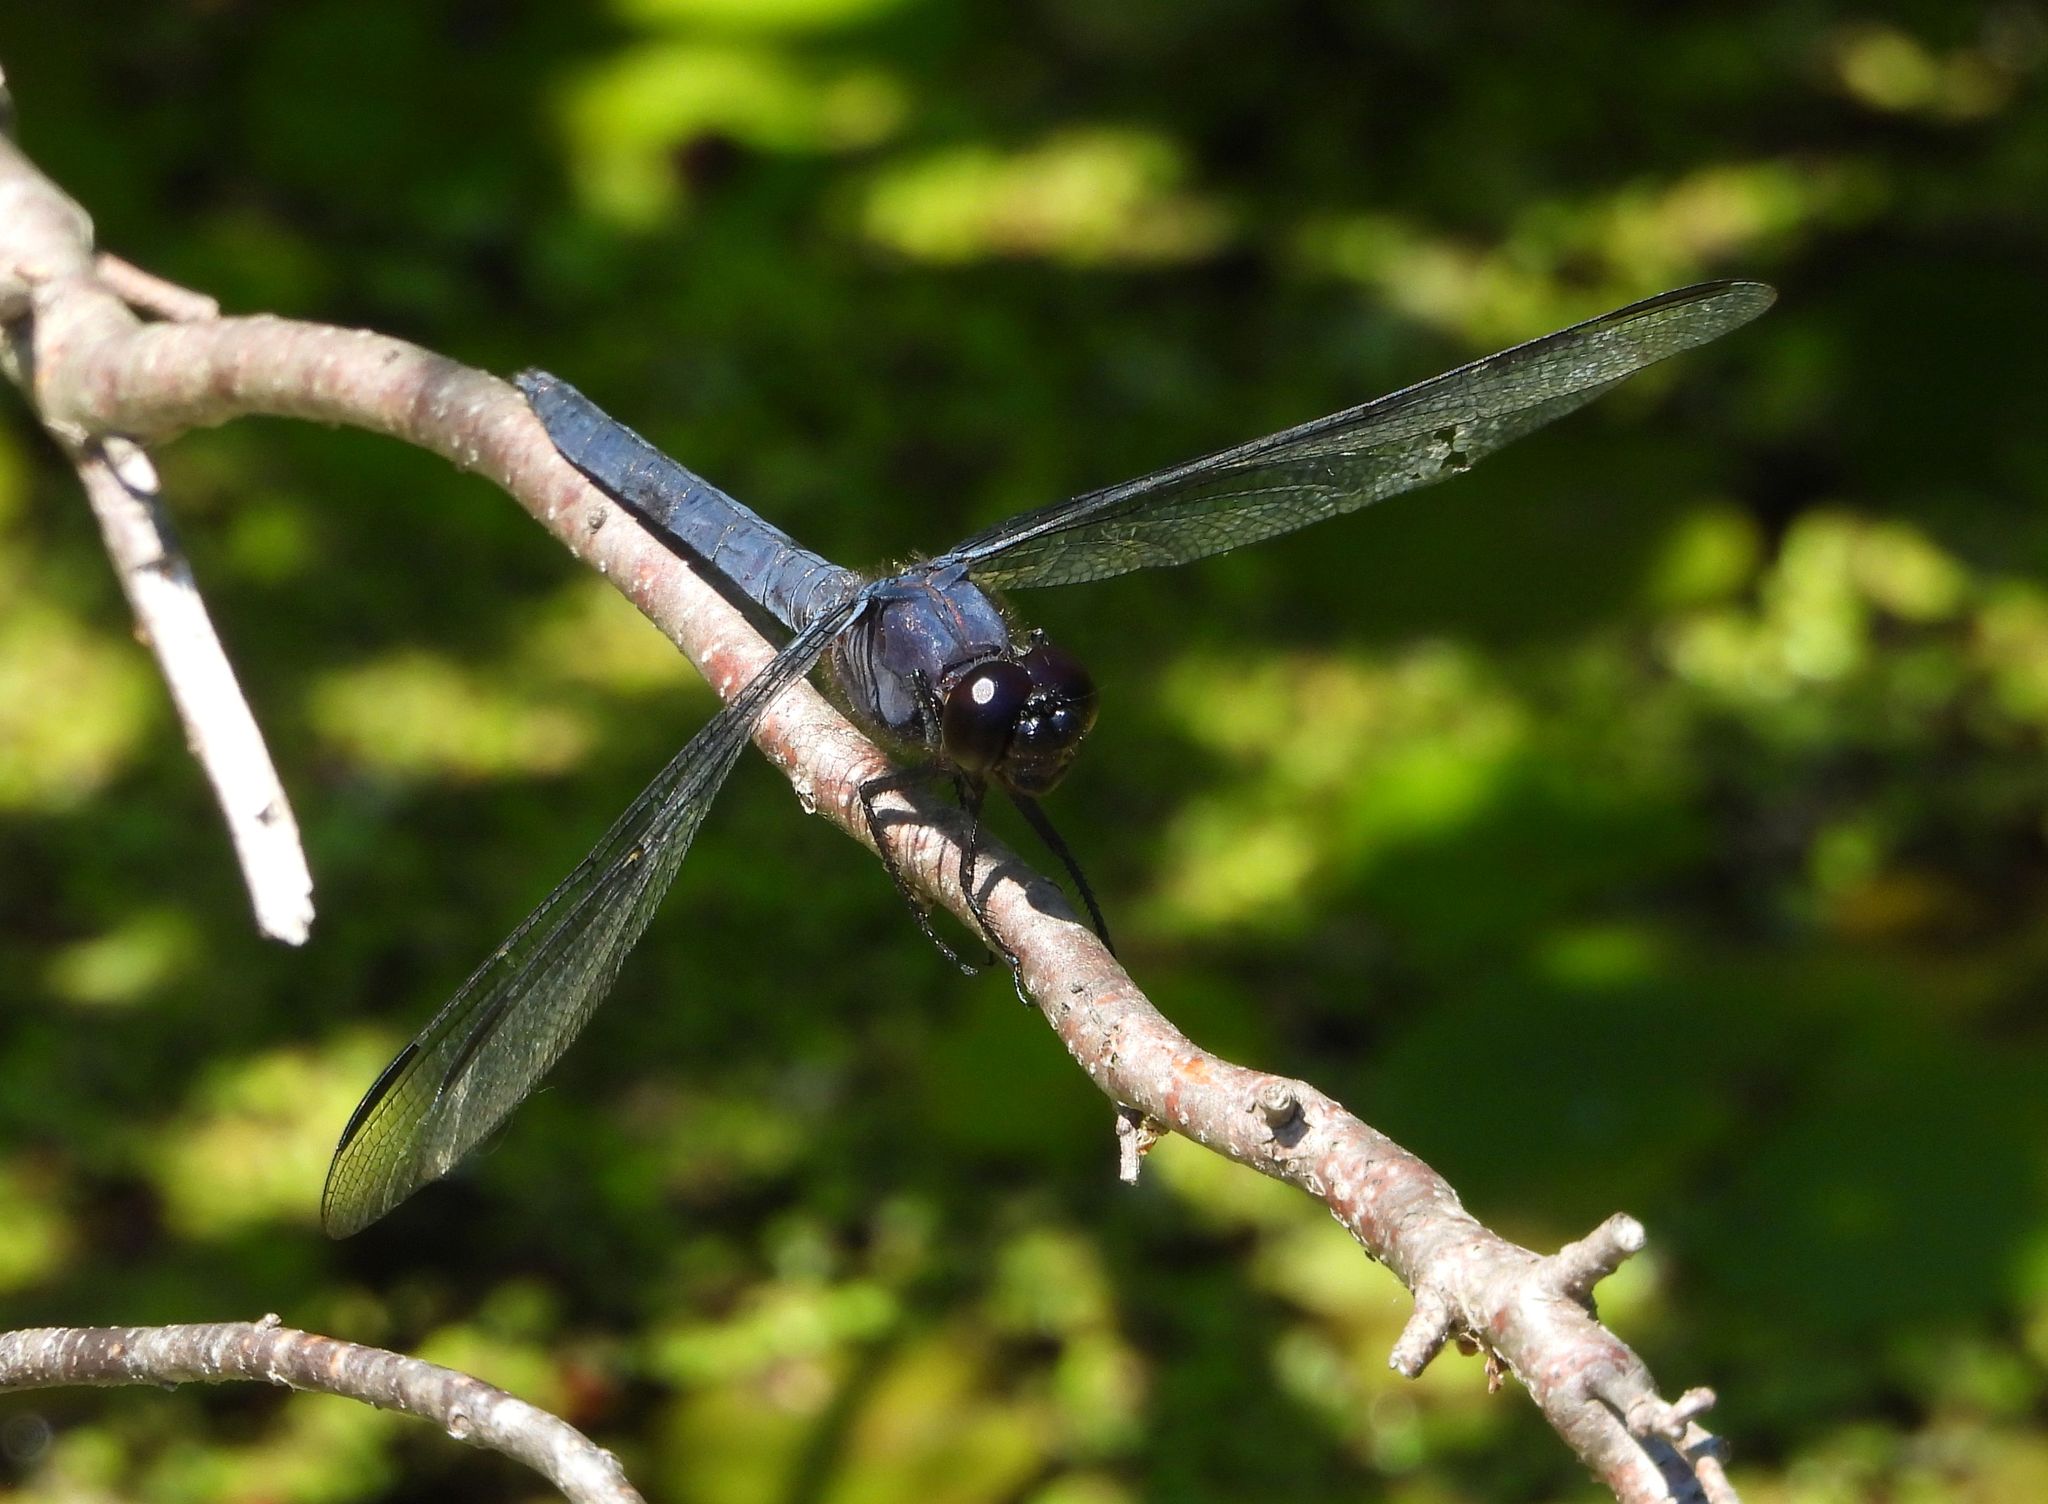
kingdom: Animalia
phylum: Arthropoda
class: Insecta
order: Odonata
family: Libellulidae
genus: Libellula
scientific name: Libellula incesta
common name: Slaty skimmer
